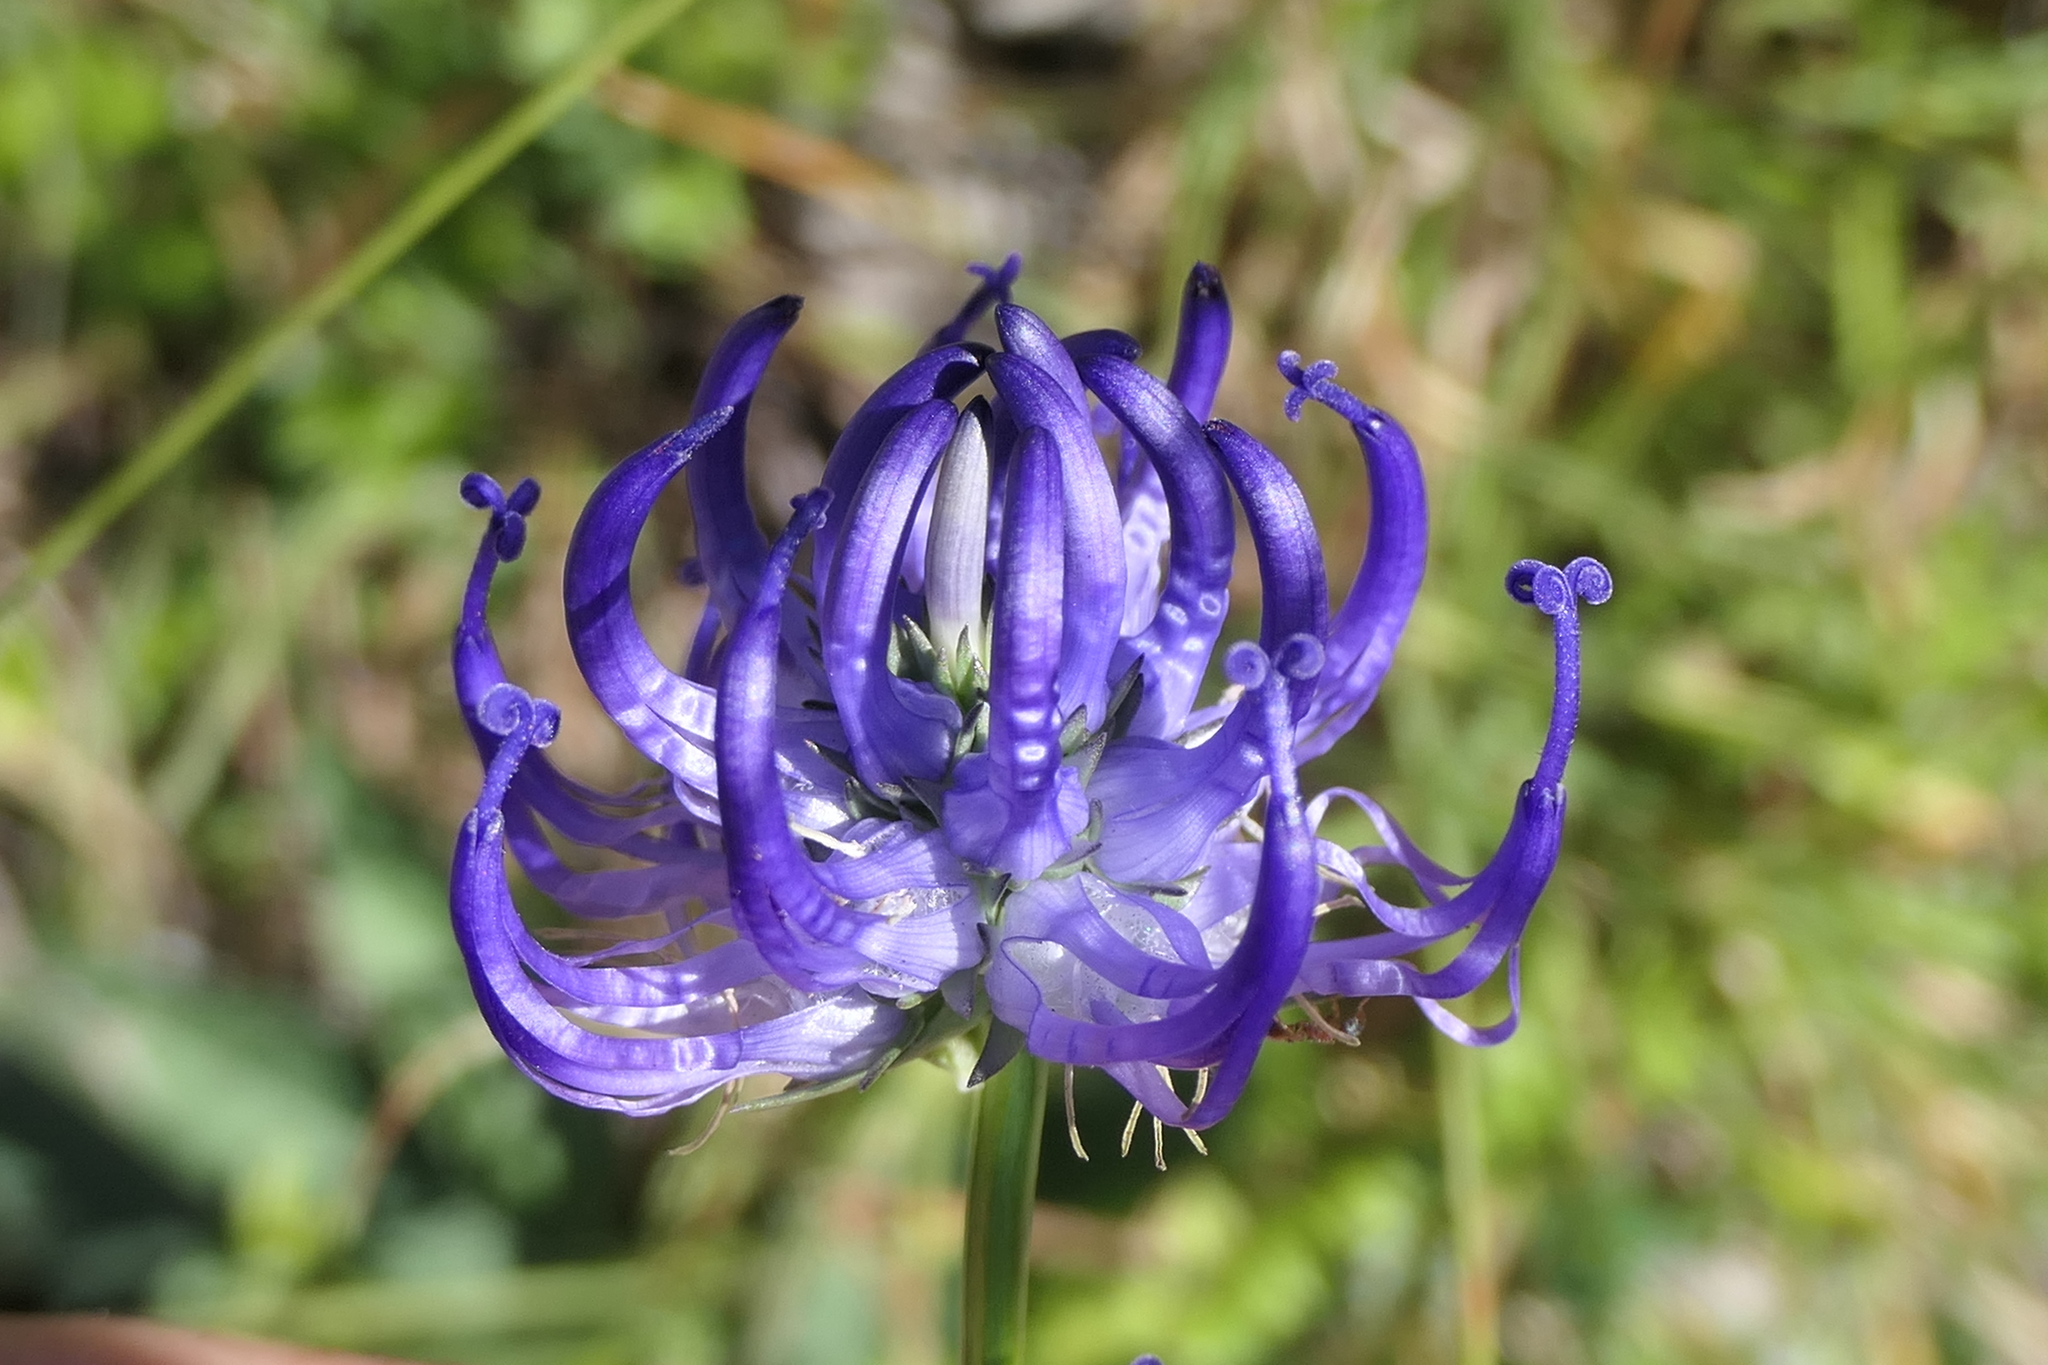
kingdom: Plantae
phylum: Tracheophyta
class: Magnoliopsida
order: Asterales
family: Campanulaceae
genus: Phyteuma
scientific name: Phyteuma orbiculare
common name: Round-headed rampion
